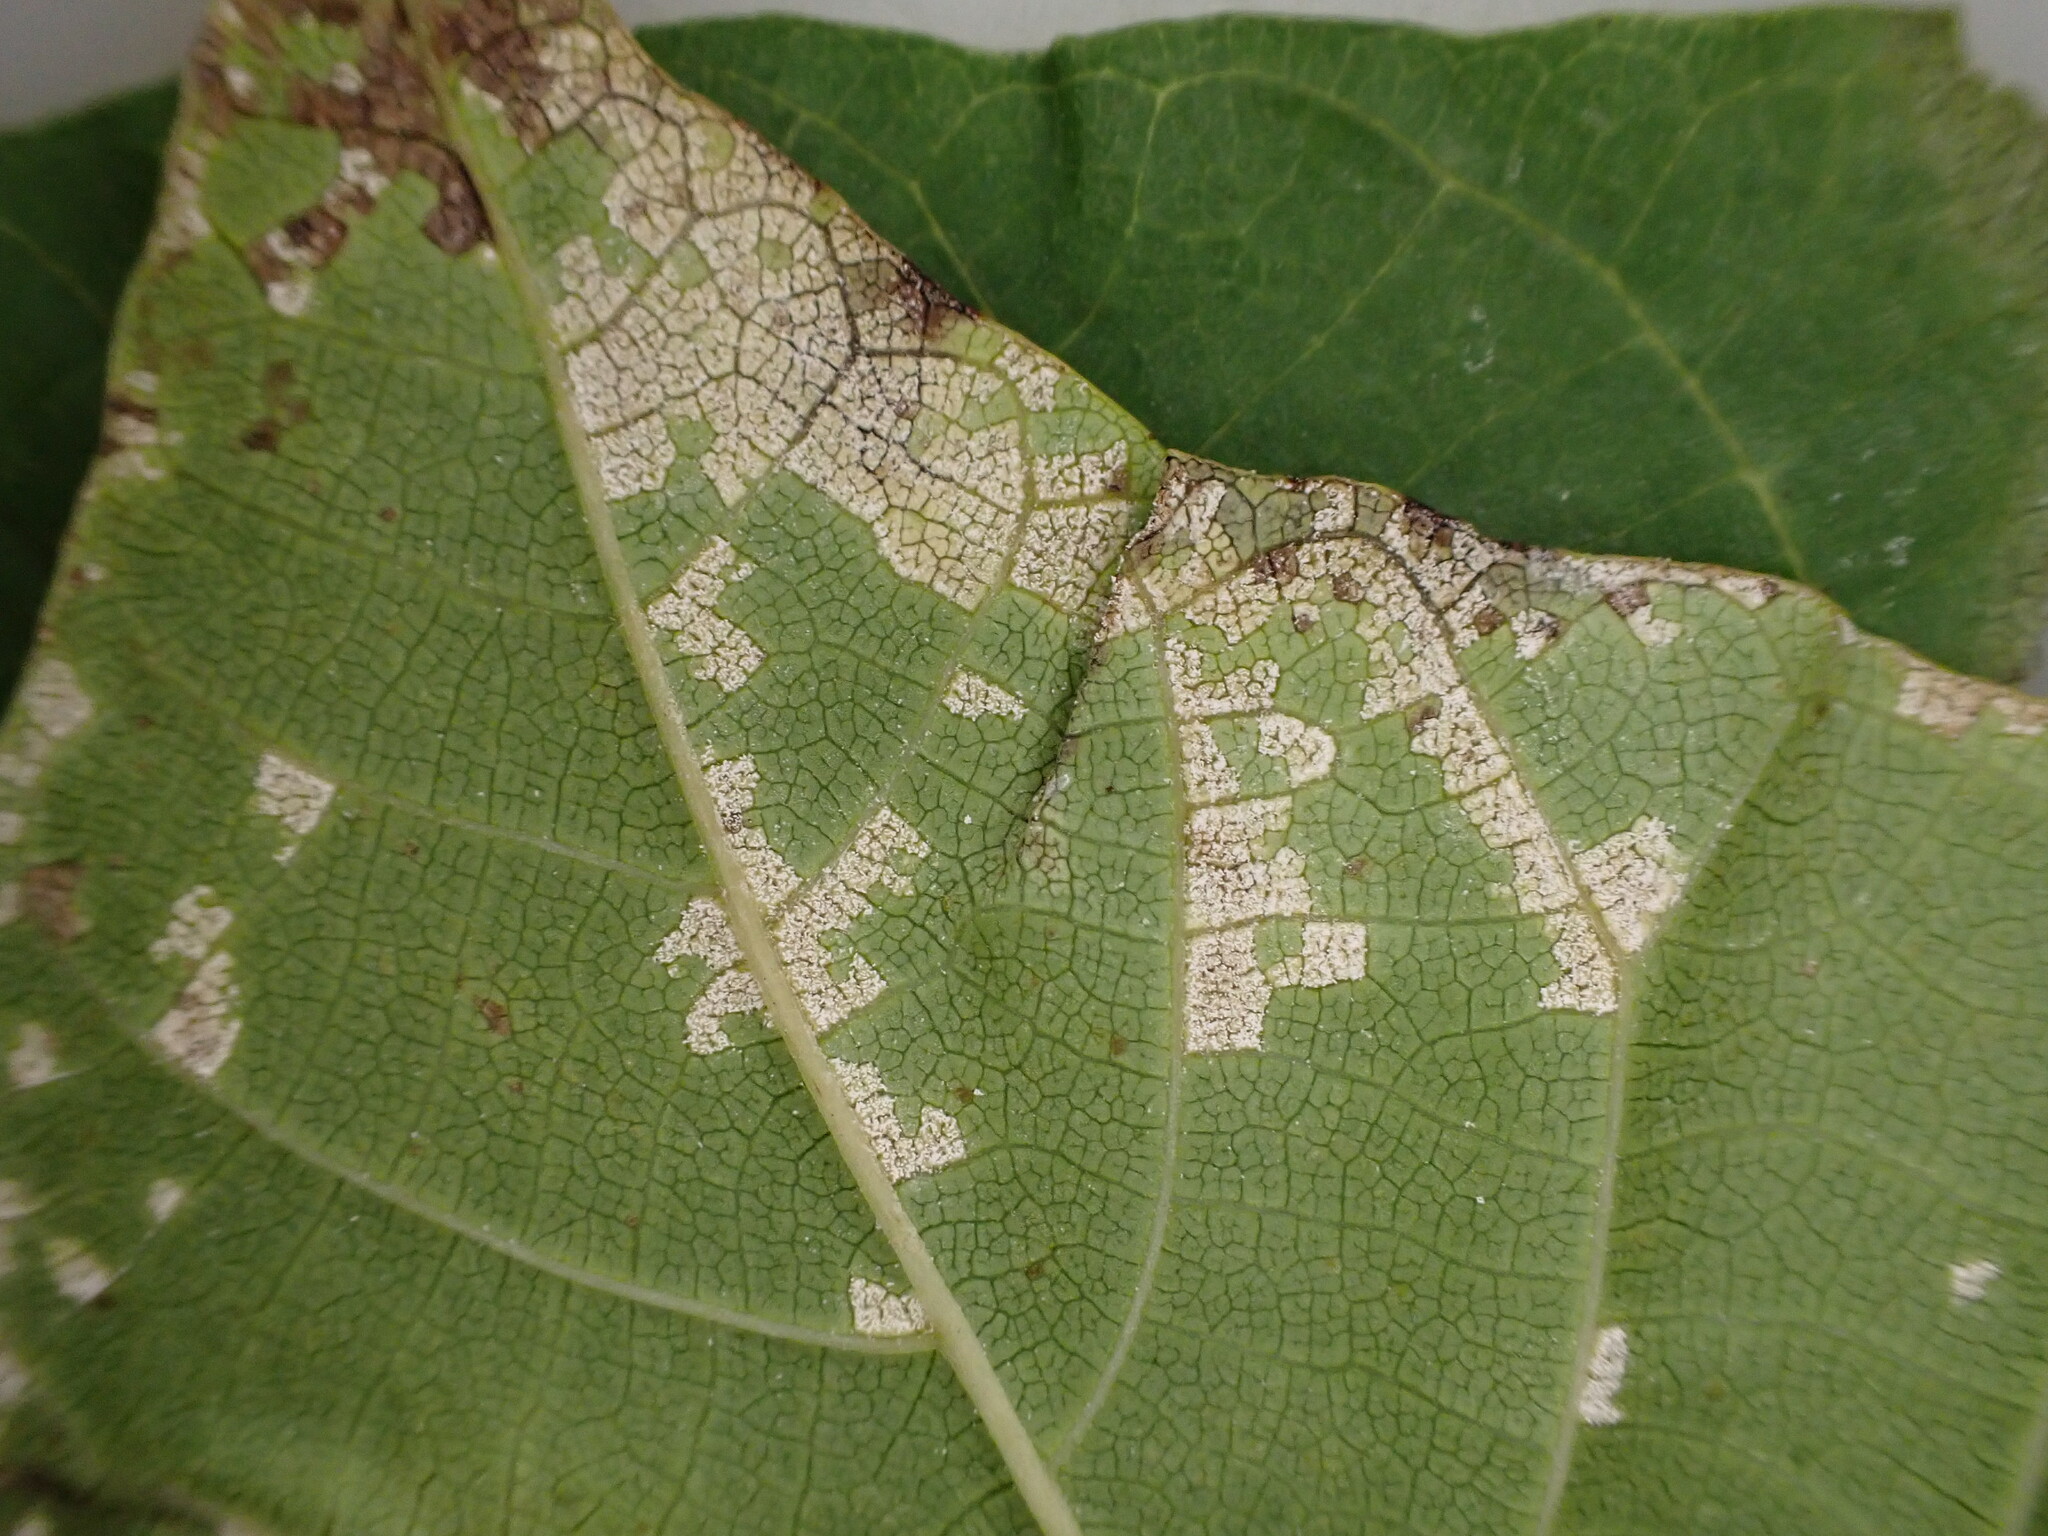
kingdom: Fungi
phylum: Basidiomycota
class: Exobasidiomycetes
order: Microstromatales
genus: Pseudomicrostroma
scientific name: Pseudomicrostroma juglandis
